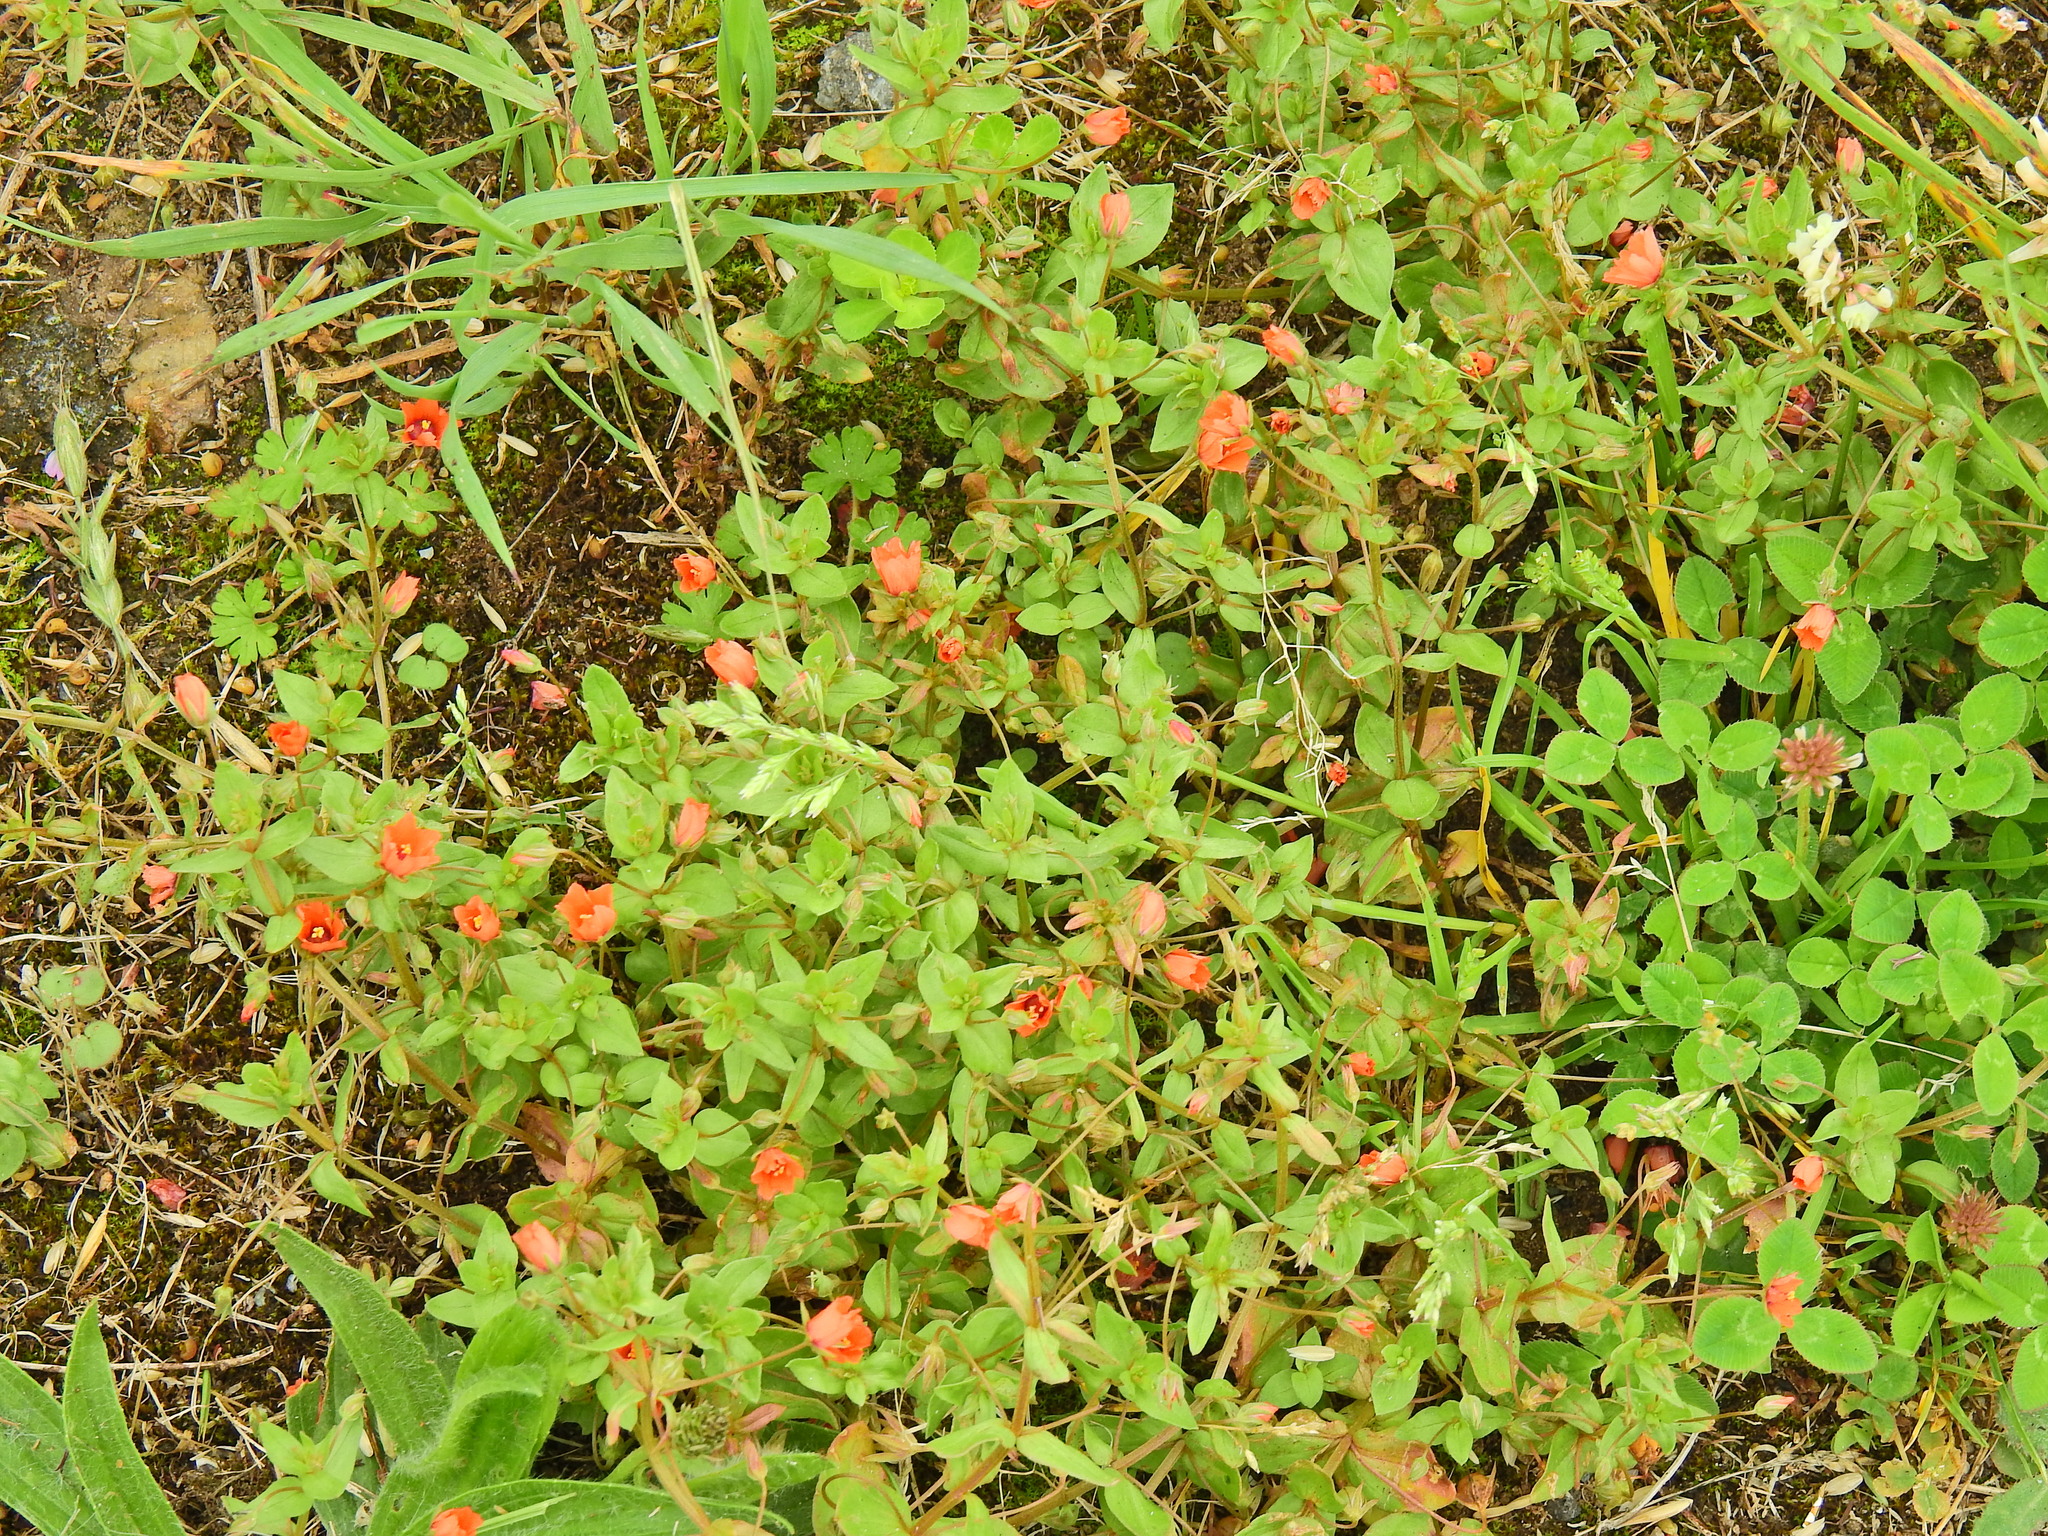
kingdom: Plantae
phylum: Tracheophyta
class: Magnoliopsida
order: Ericales
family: Primulaceae
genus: Lysimachia
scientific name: Lysimachia arvensis
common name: Scarlet pimpernel
